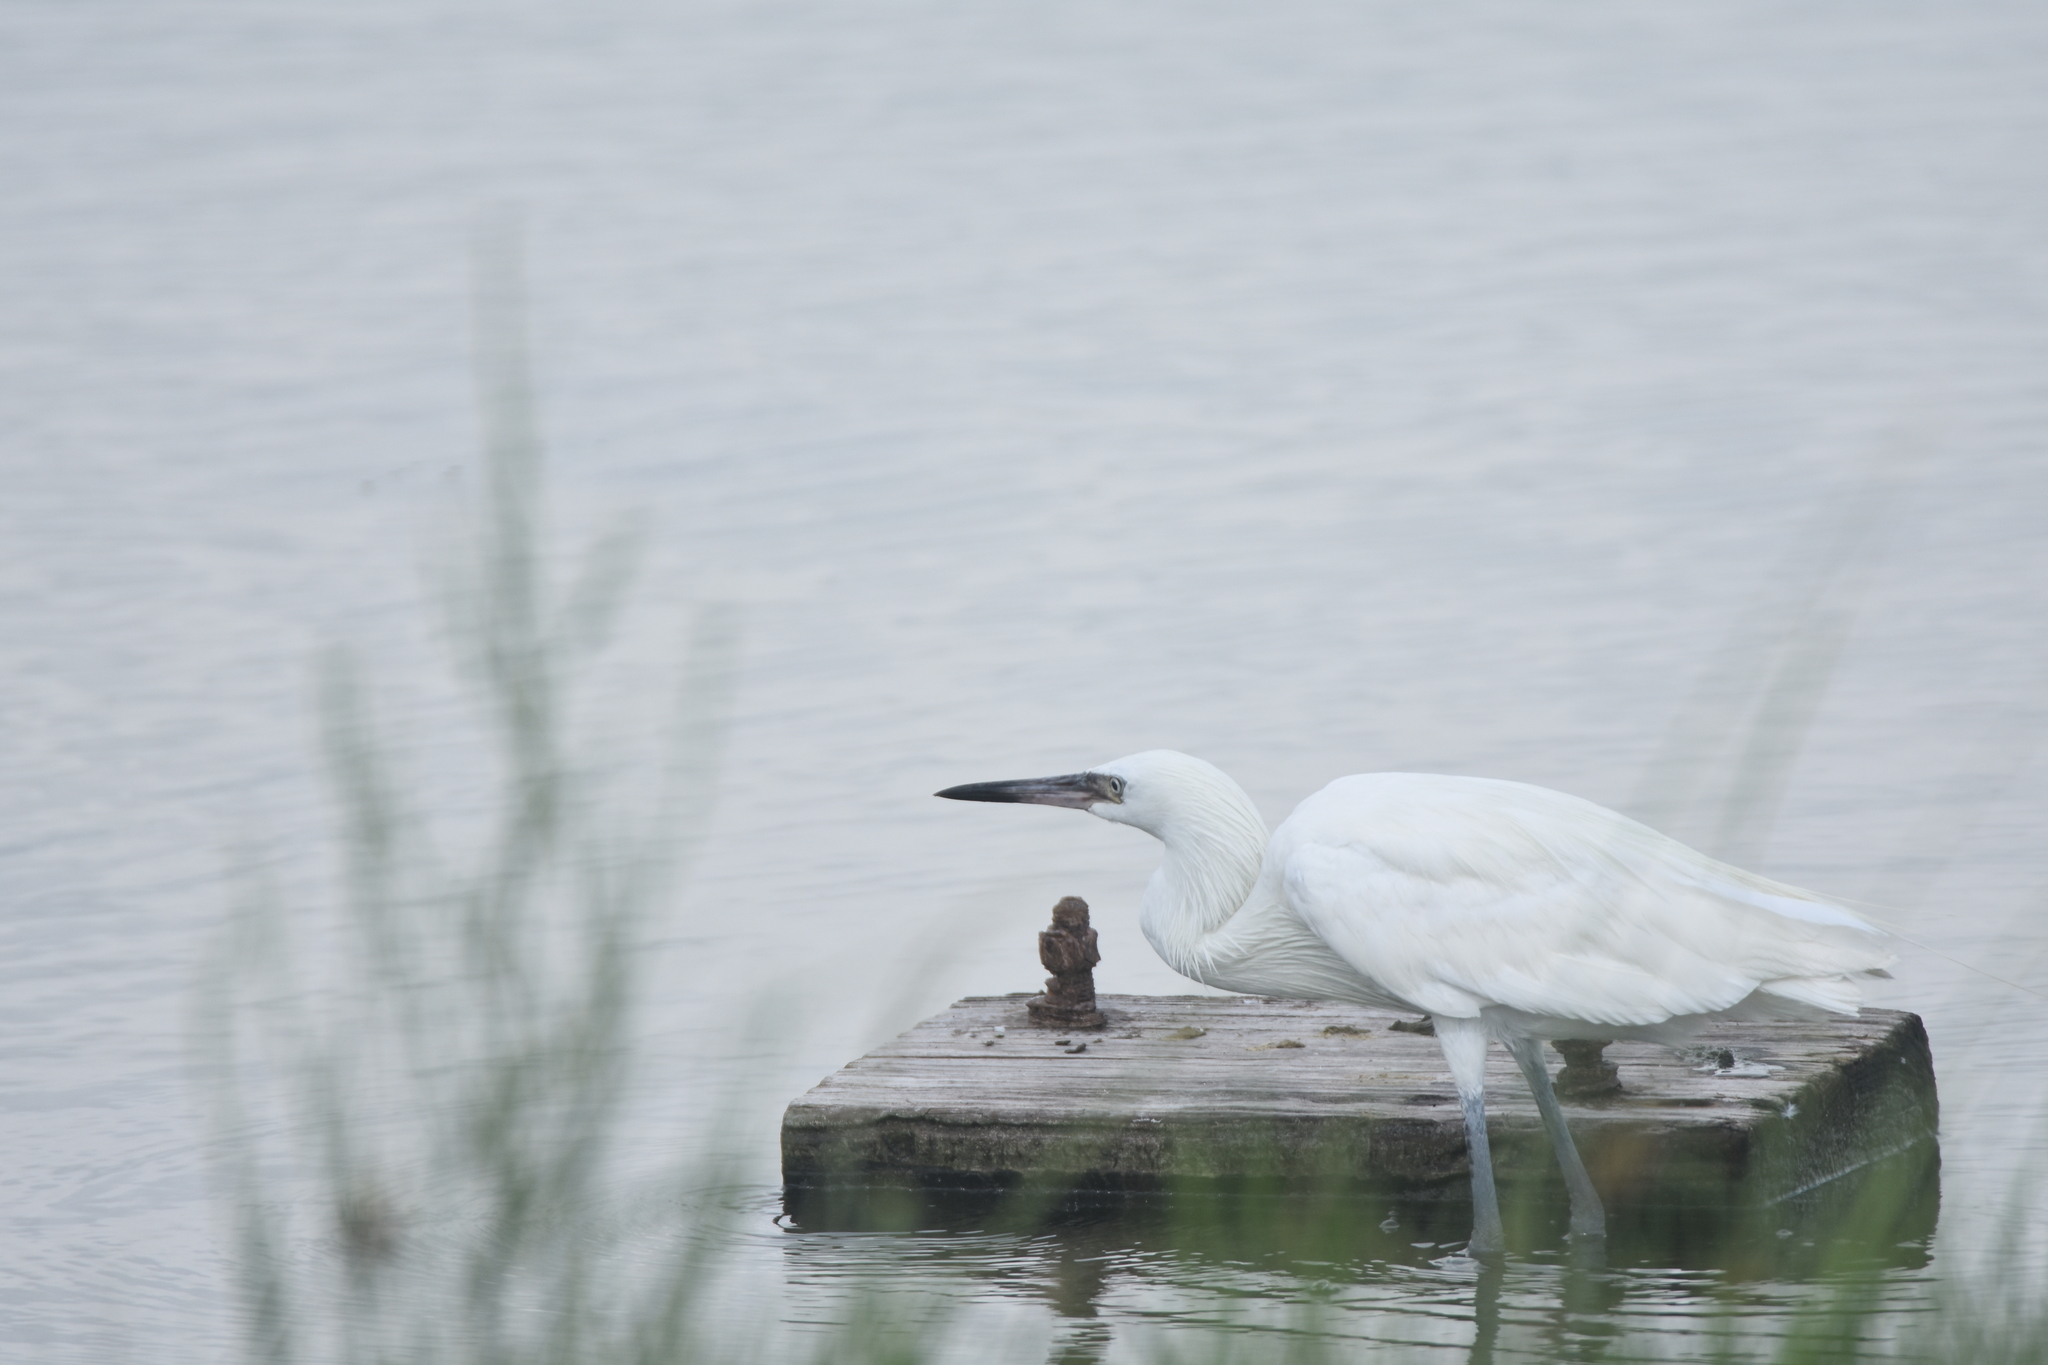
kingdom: Animalia
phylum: Chordata
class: Aves
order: Pelecaniformes
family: Ardeidae
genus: Egretta
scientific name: Egretta rufescens
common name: Reddish egret
